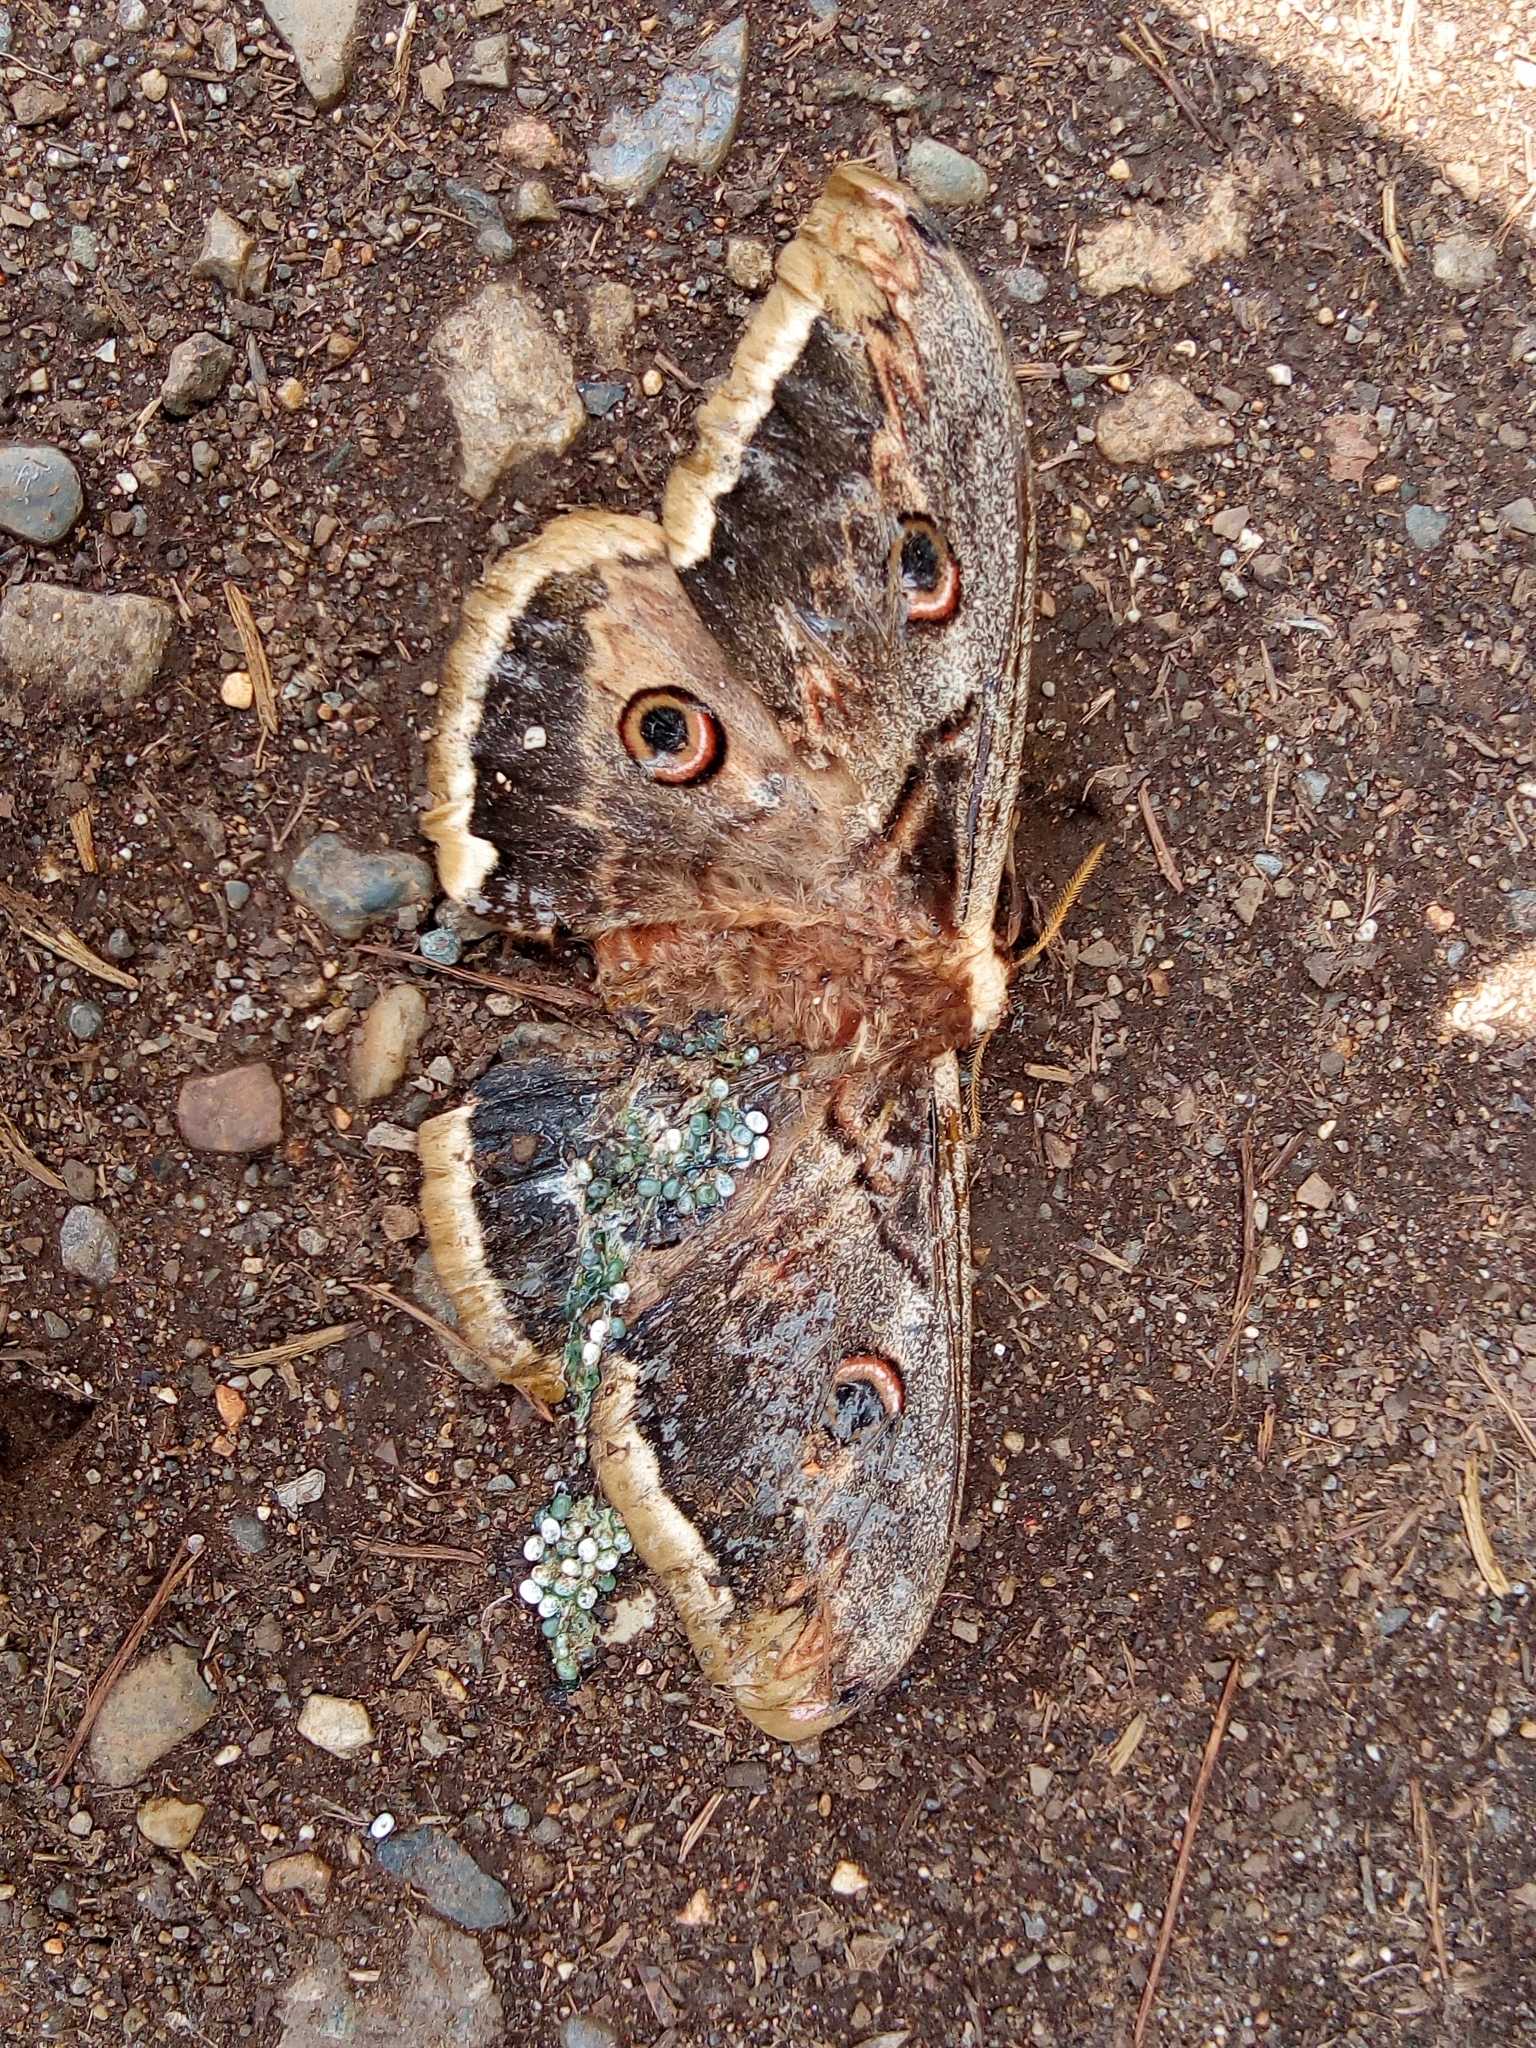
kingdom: Animalia
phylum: Arthropoda
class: Insecta
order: Lepidoptera
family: Saturniidae
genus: Saturnia
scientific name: Saturnia pyri
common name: Great peacock moth
